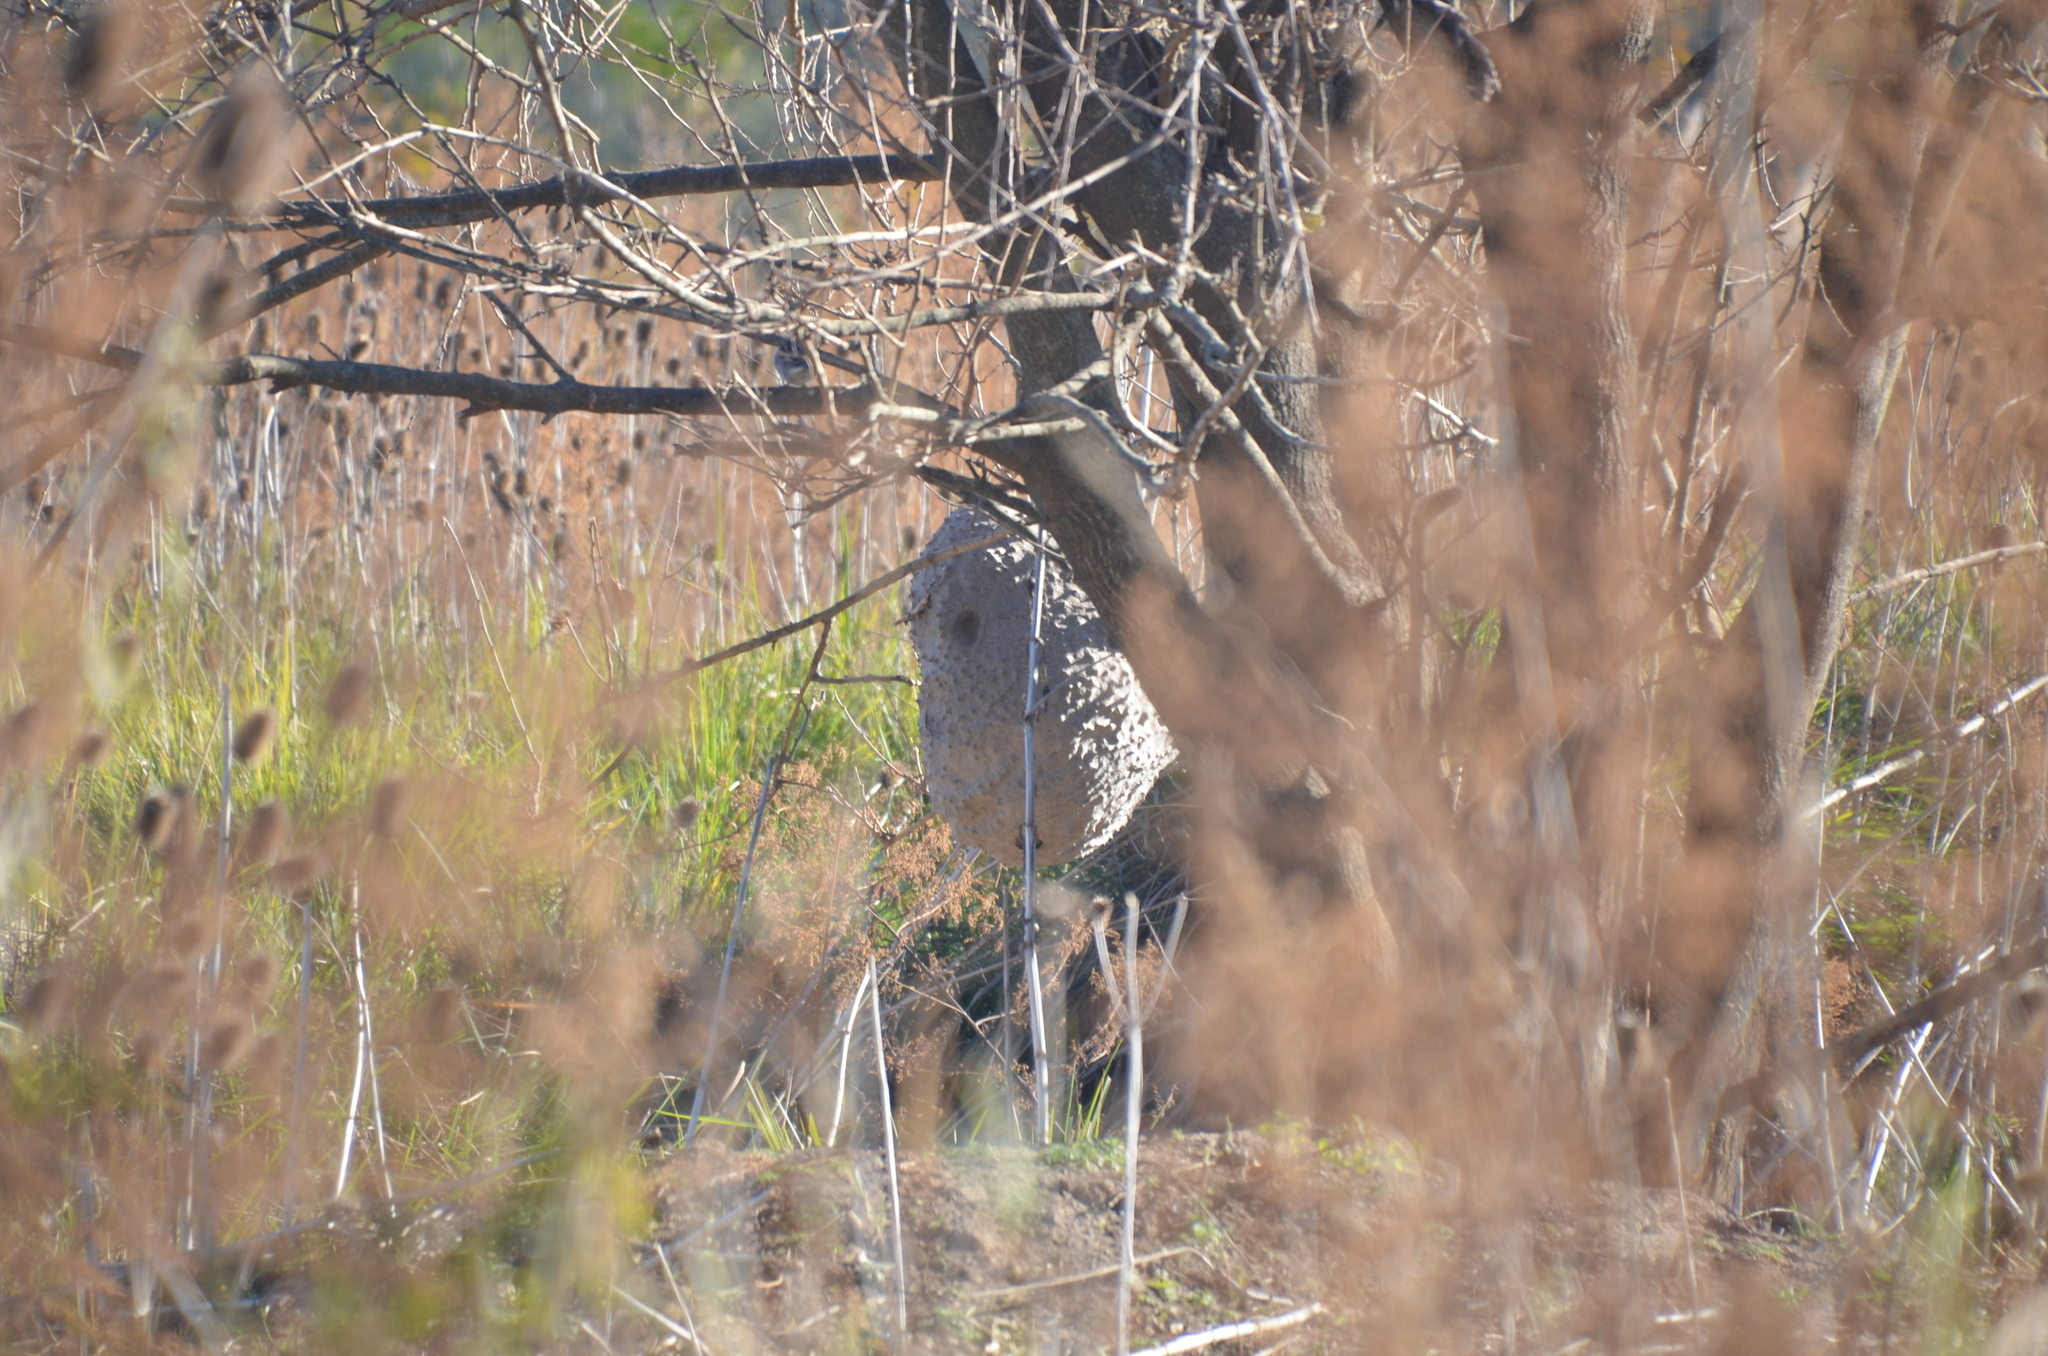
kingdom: Animalia
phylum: Arthropoda
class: Insecta
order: Hymenoptera
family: Eumenidae
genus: Polybia
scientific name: Polybia scutellaris
